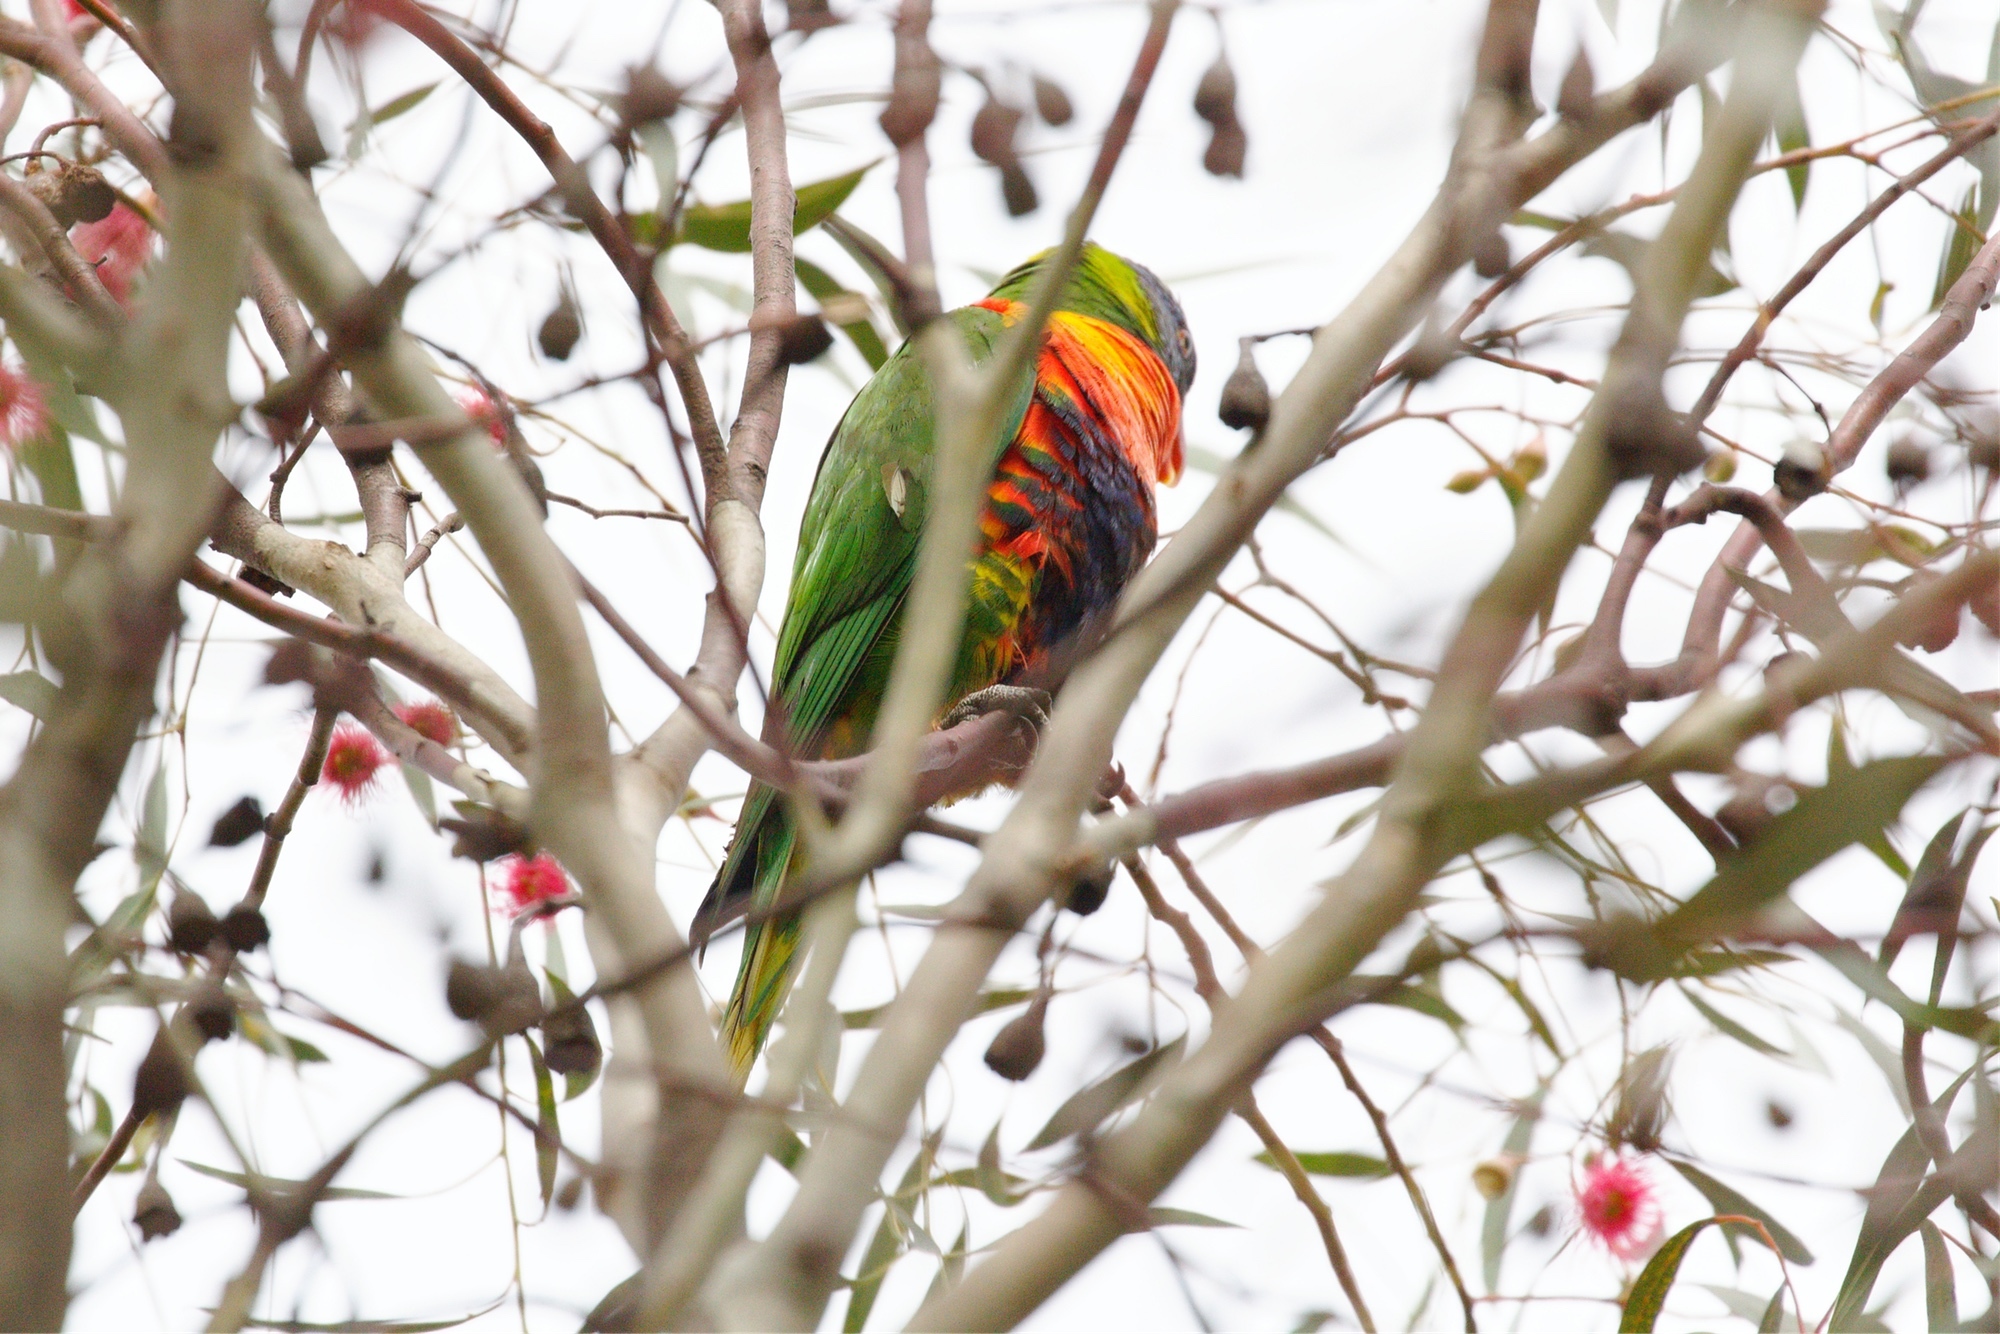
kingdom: Animalia
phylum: Chordata
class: Aves
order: Psittaciformes
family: Psittacidae
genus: Trichoglossus
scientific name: Trichoglossus haematodus
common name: Coconut lorikeet
